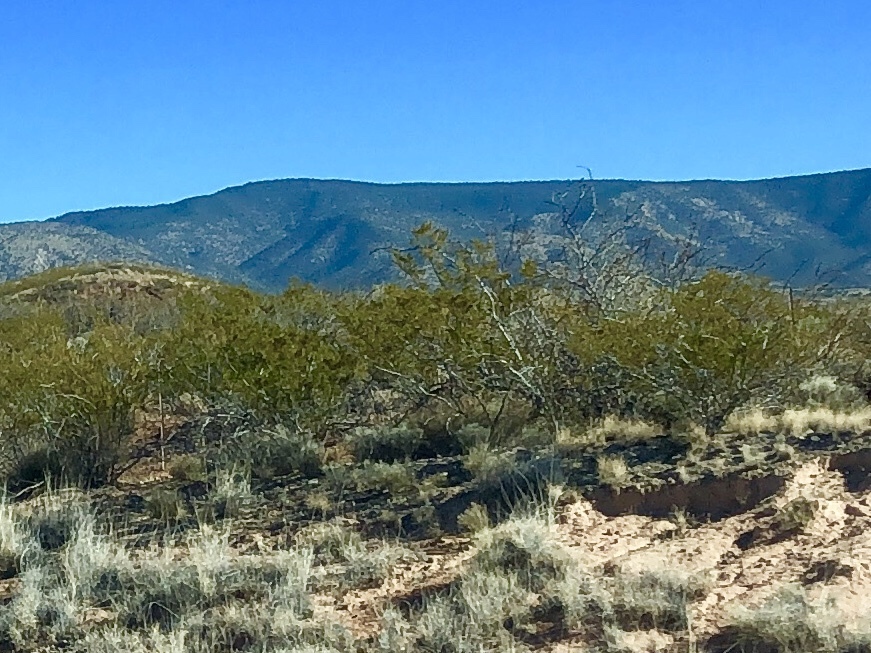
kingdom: Plantae
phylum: Tracheophyta
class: Magnoliopsida
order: Zygophyllales
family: Zygophyllaceae
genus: Larrea
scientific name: Larrea tridentata
